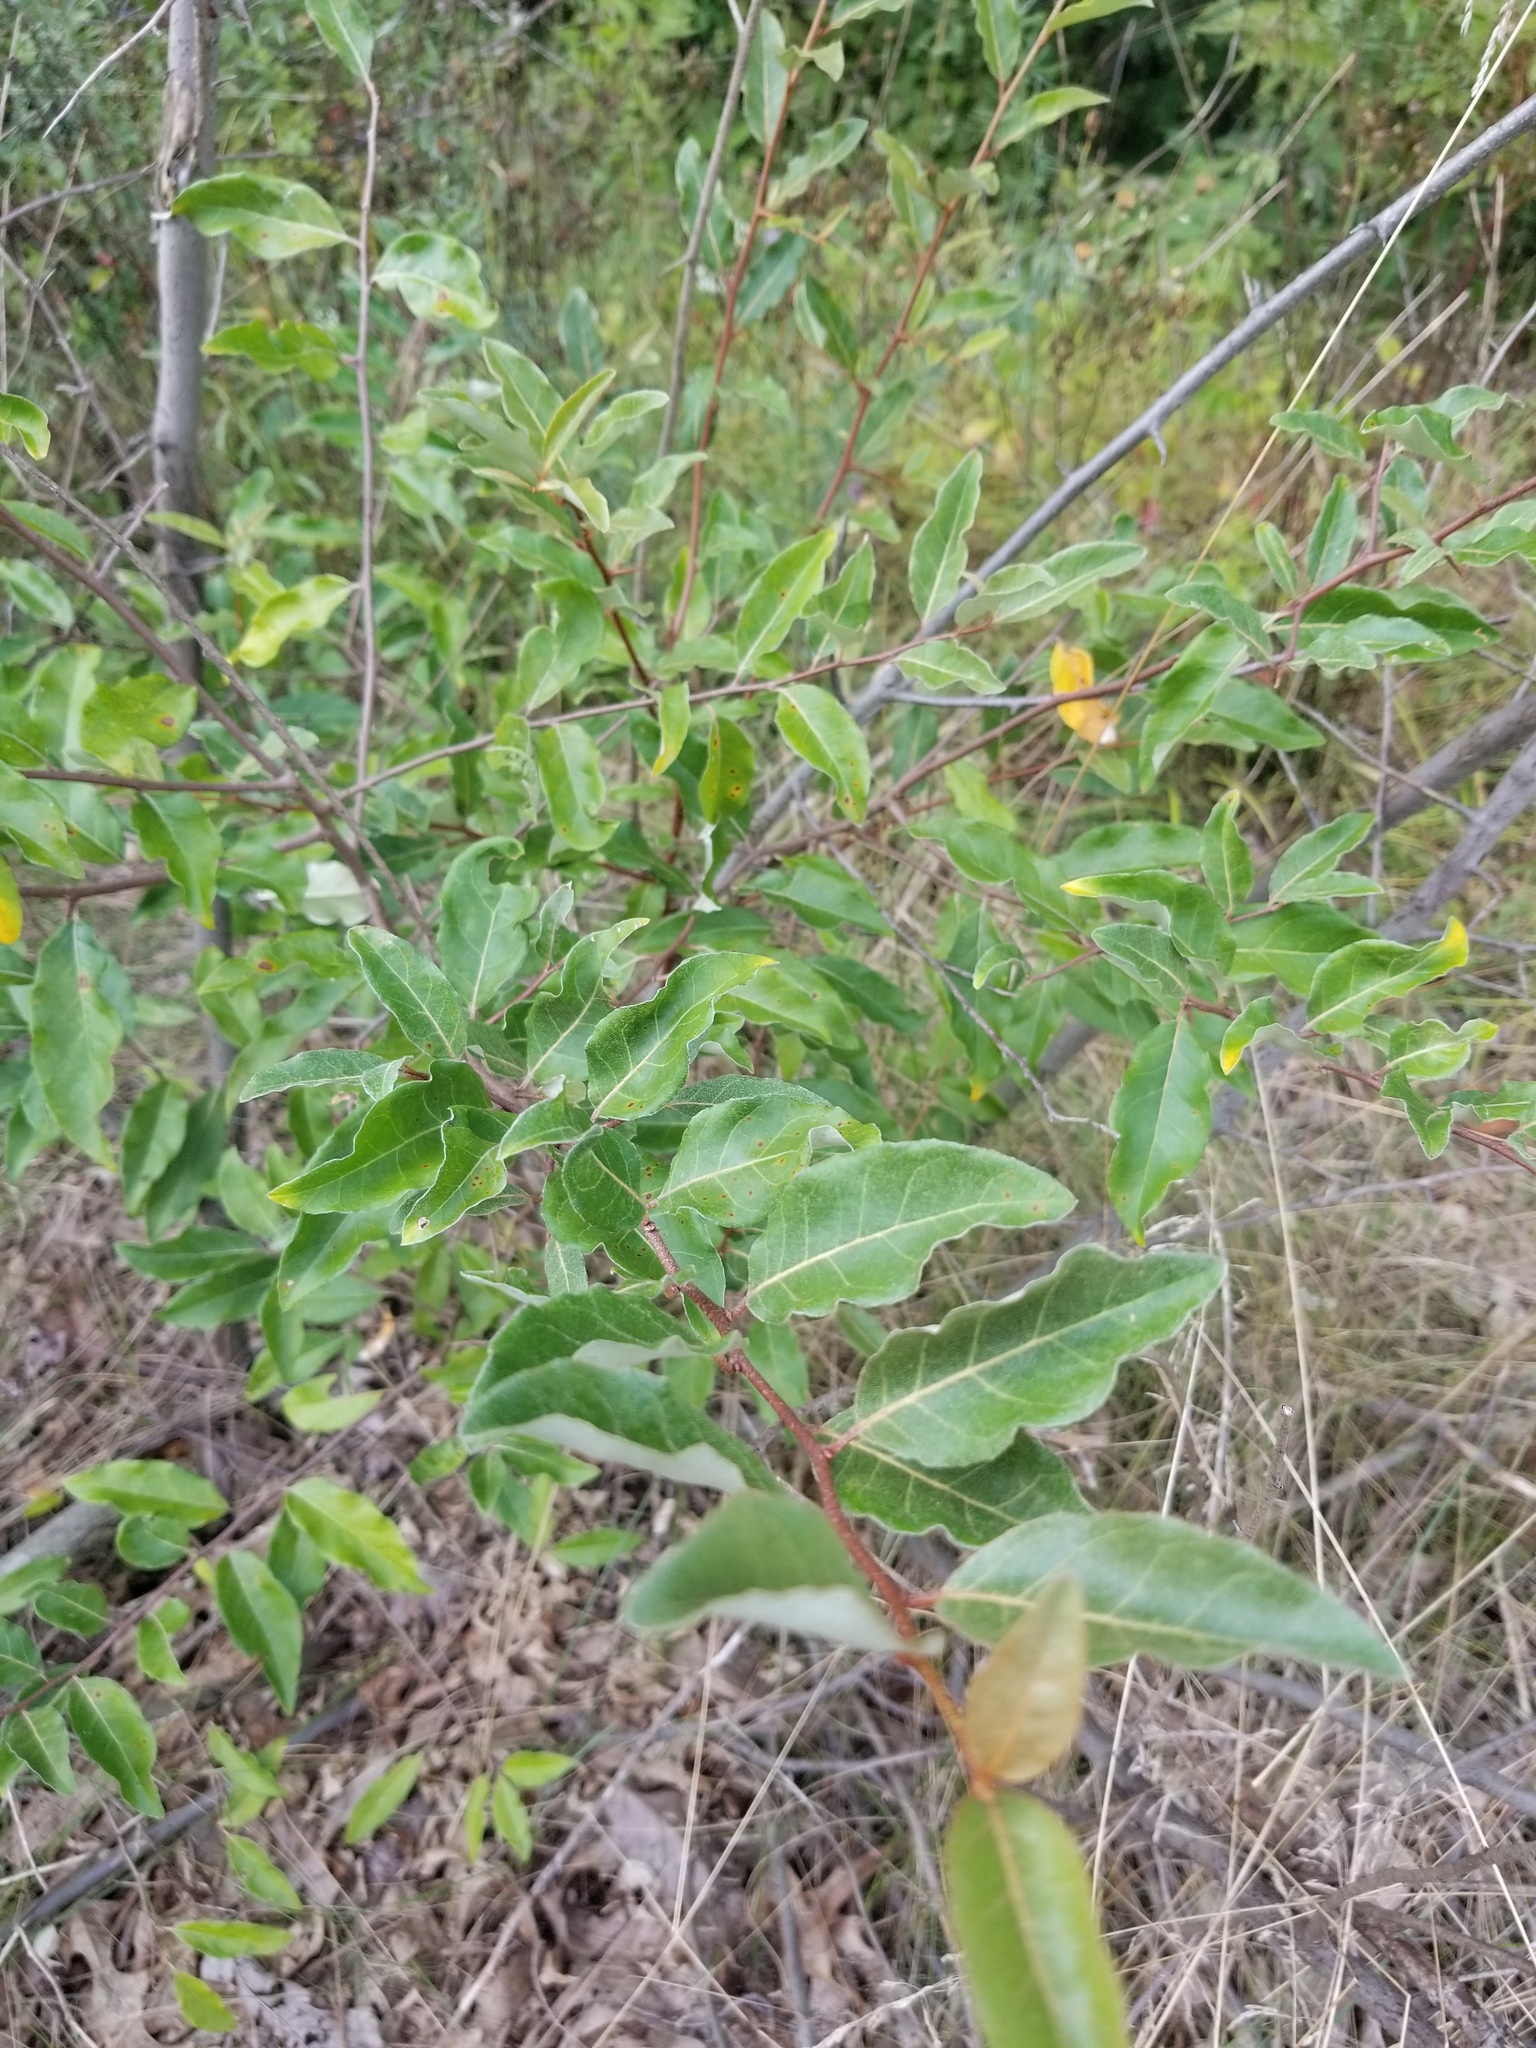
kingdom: Plantae
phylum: Tracheophyta
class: Magnoliopsida
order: Rosales
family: Elaeagnaceae
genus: Elaeagnus
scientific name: Elaeagnus umbellata
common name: Autumn olive
